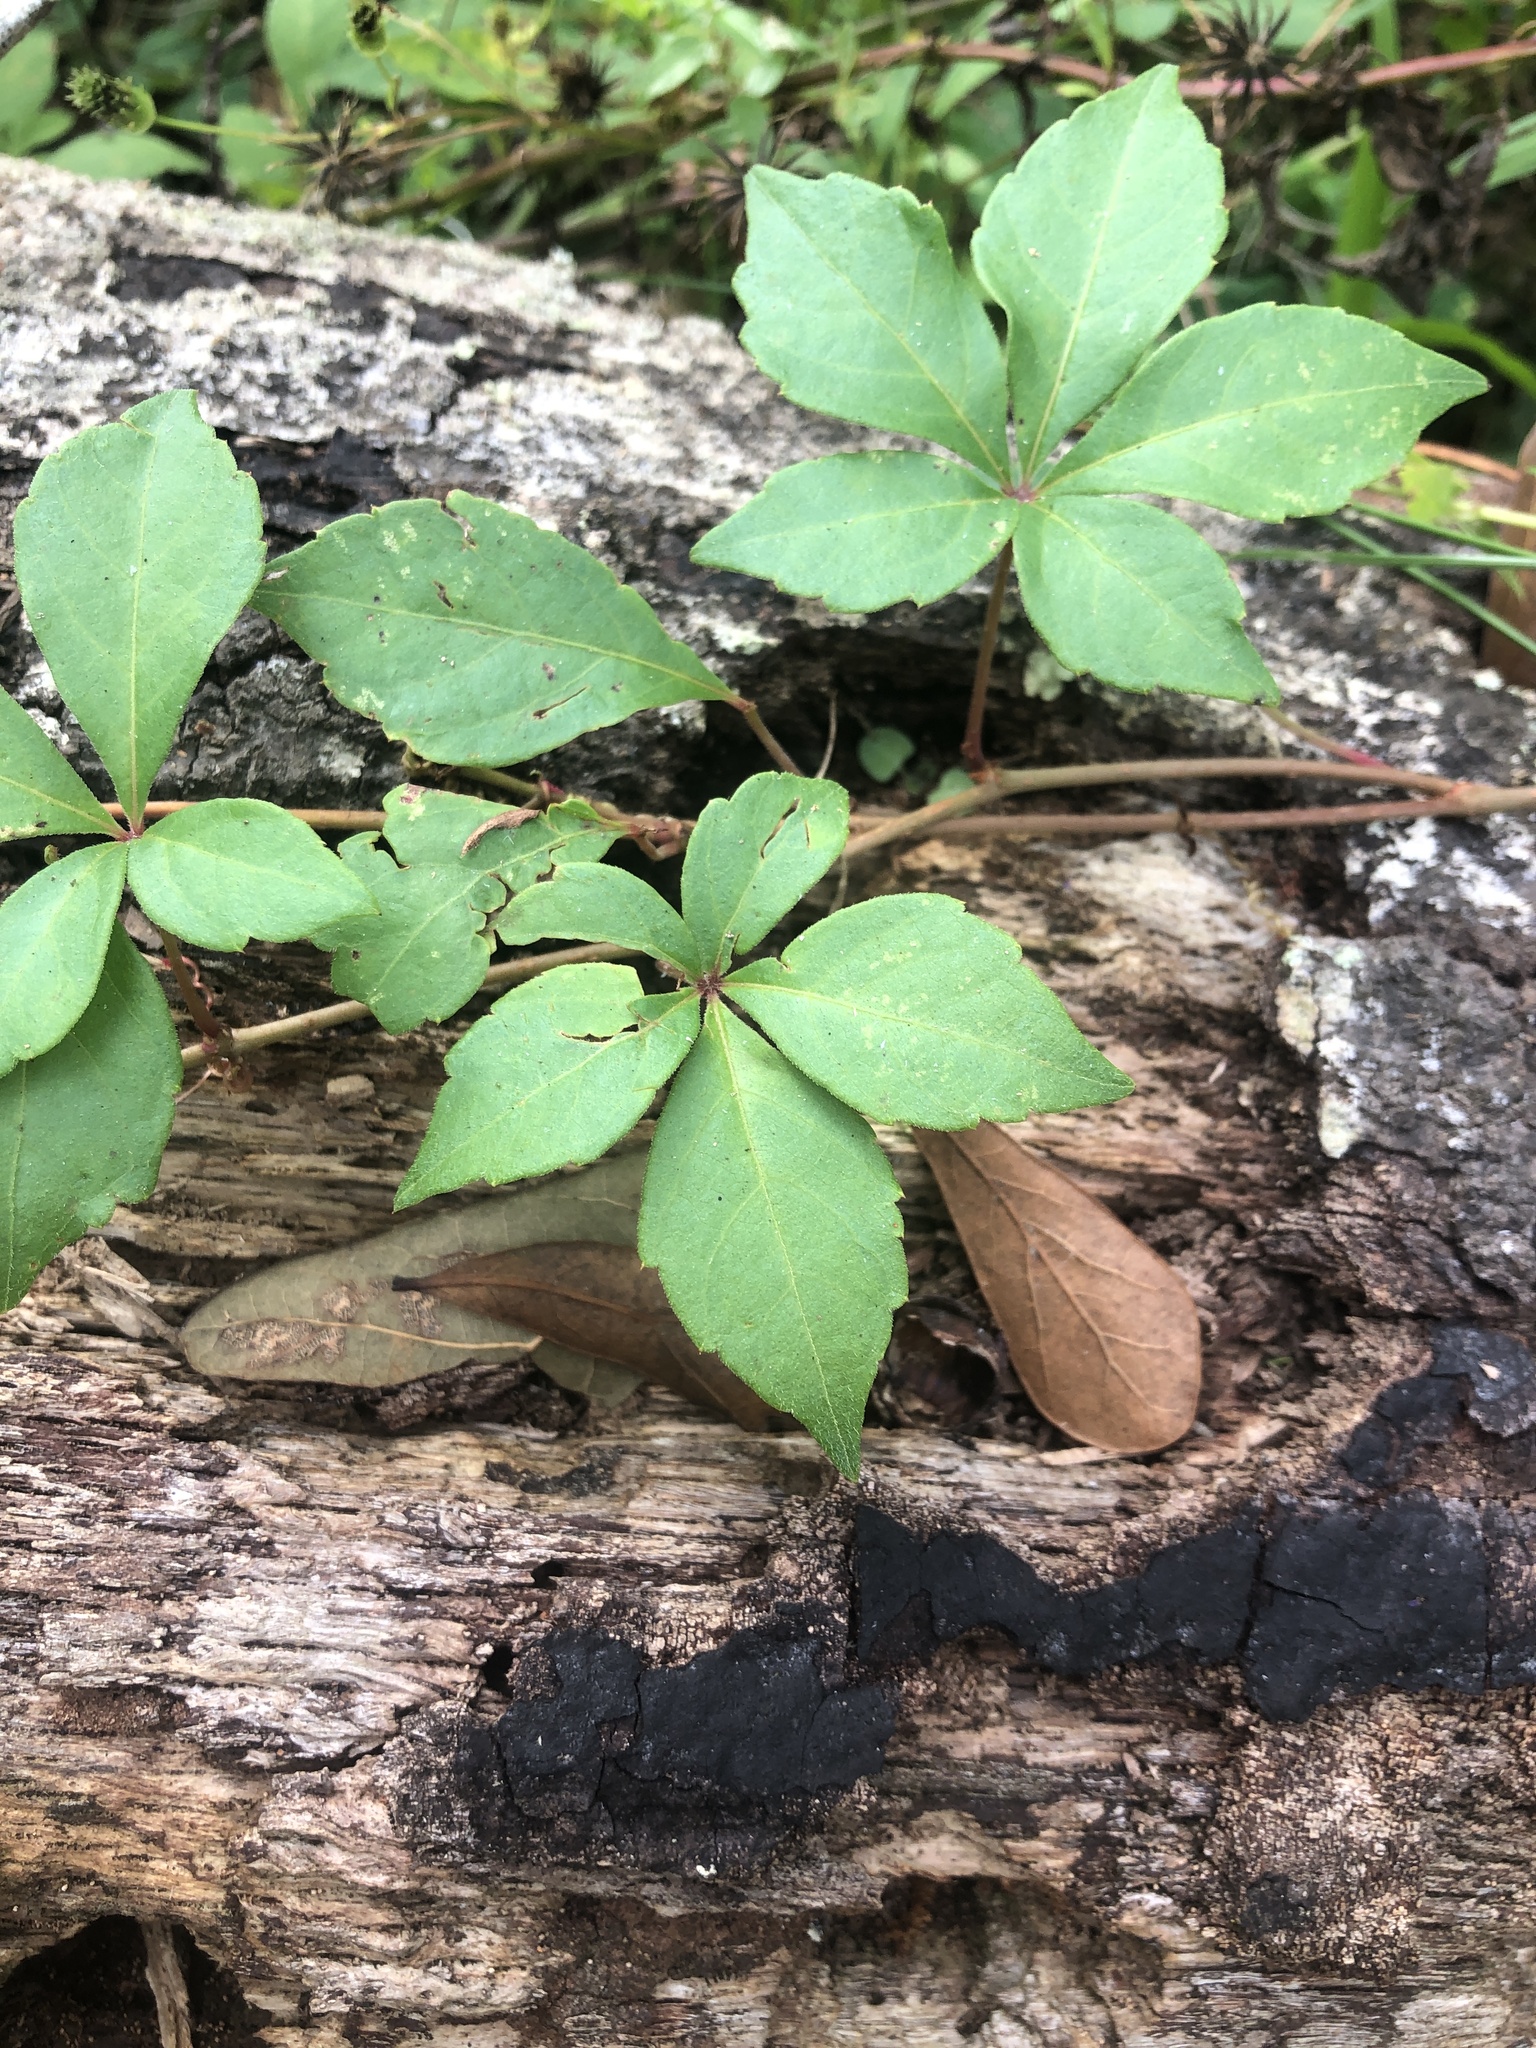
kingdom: Plantae
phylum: Tracheophyta
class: Magnoliopsida
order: Vitales
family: Vitaceae
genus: Parthenocissus
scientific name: Parthenocissus quinquefolia
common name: Virginia-creeper
